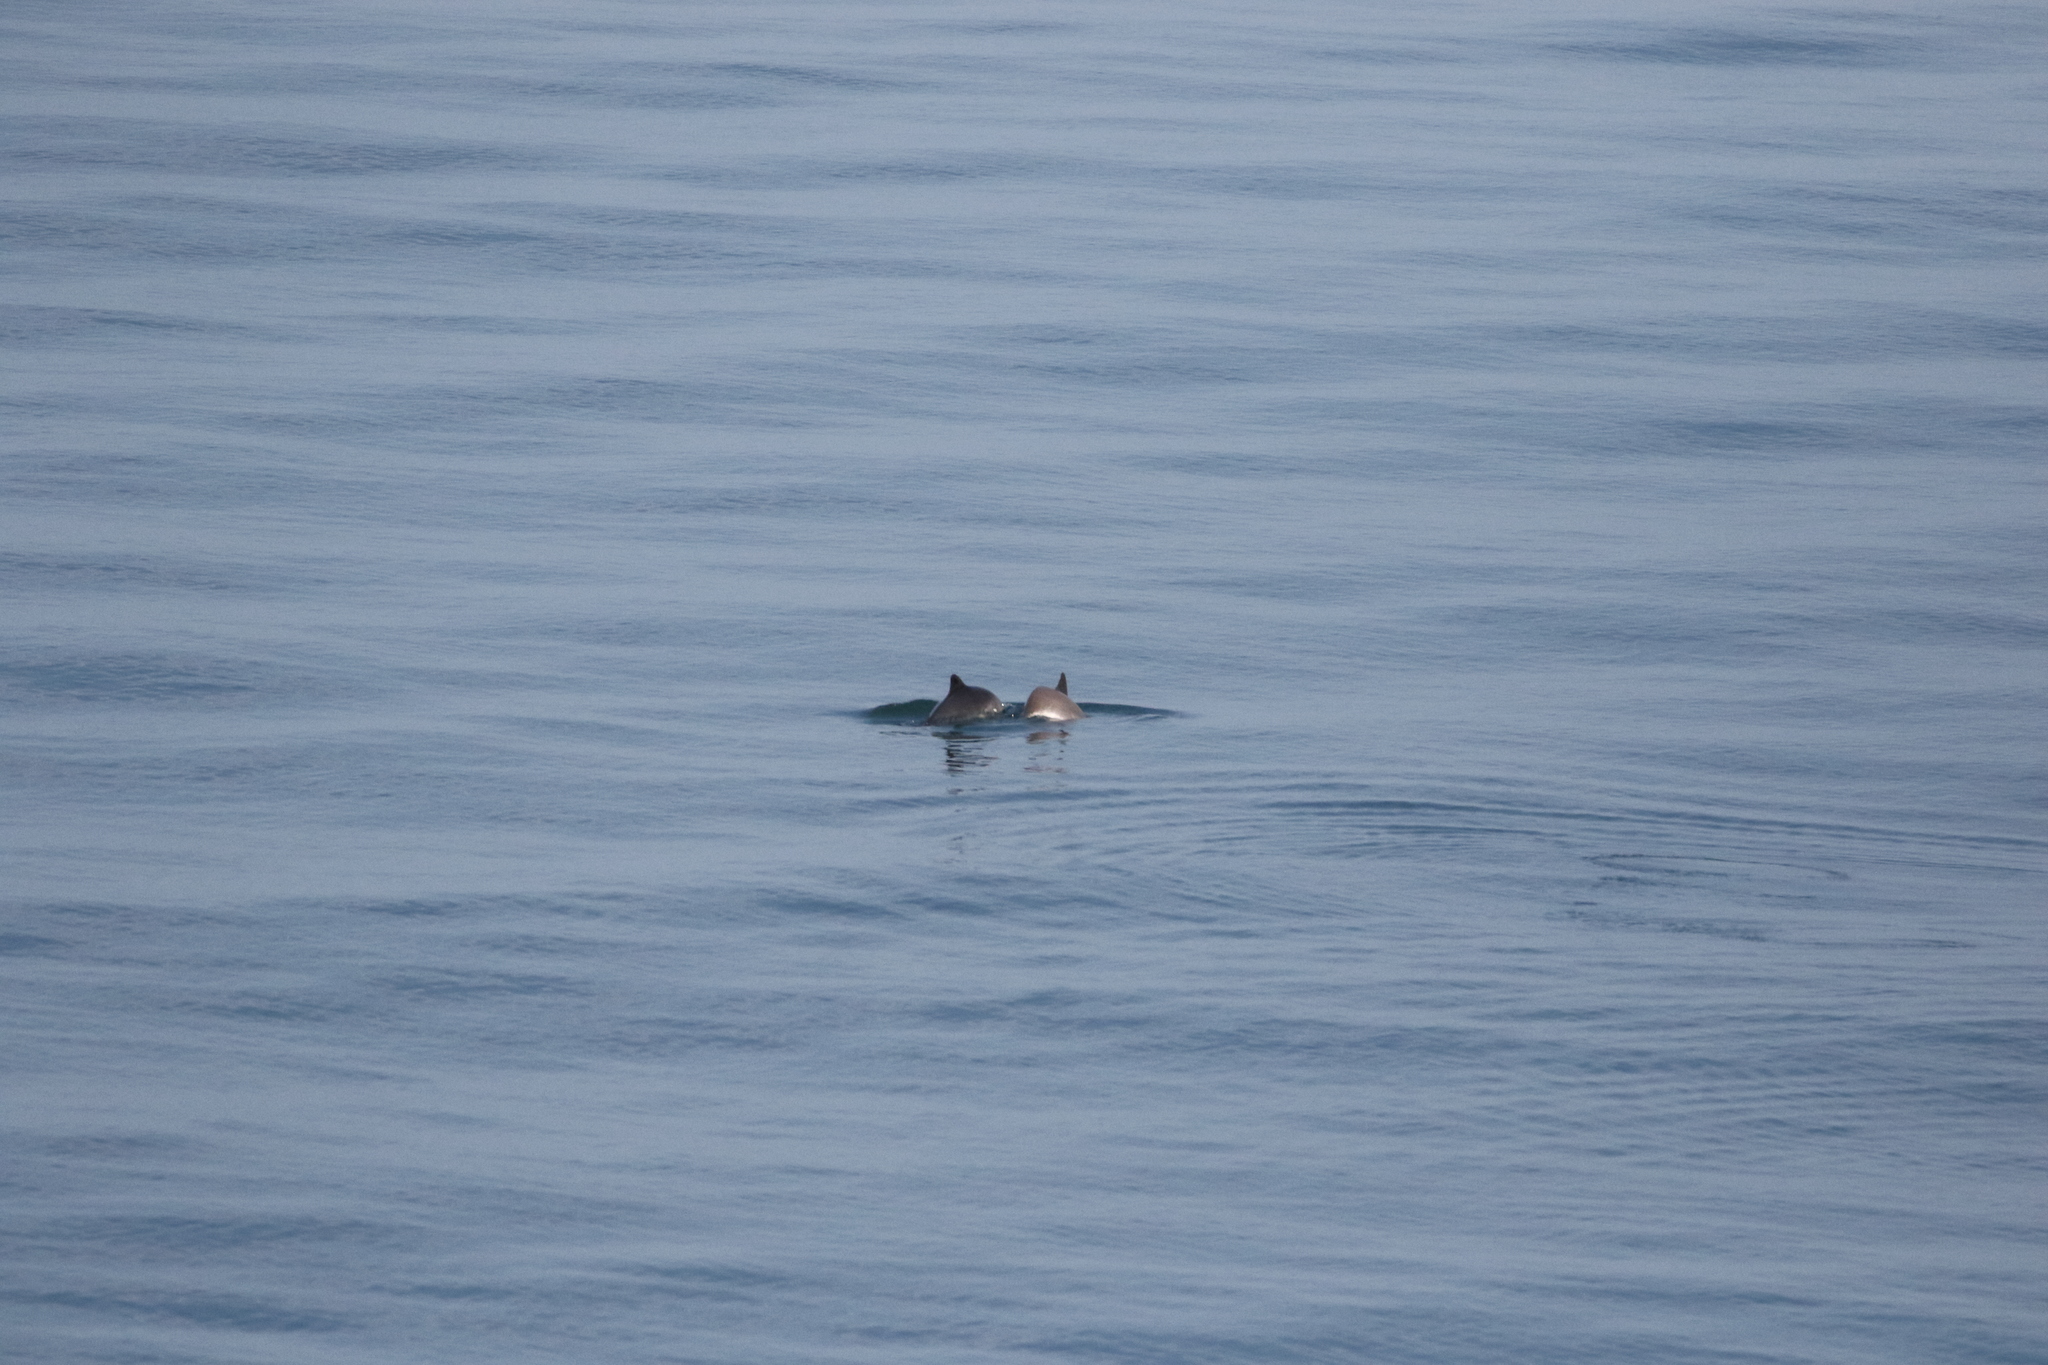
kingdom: Animalia
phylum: Chordata
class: Mammalia
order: Cetacea
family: Phocoenidae
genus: Phocoena
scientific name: Phocoena phocoena
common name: Harbor porpoise
